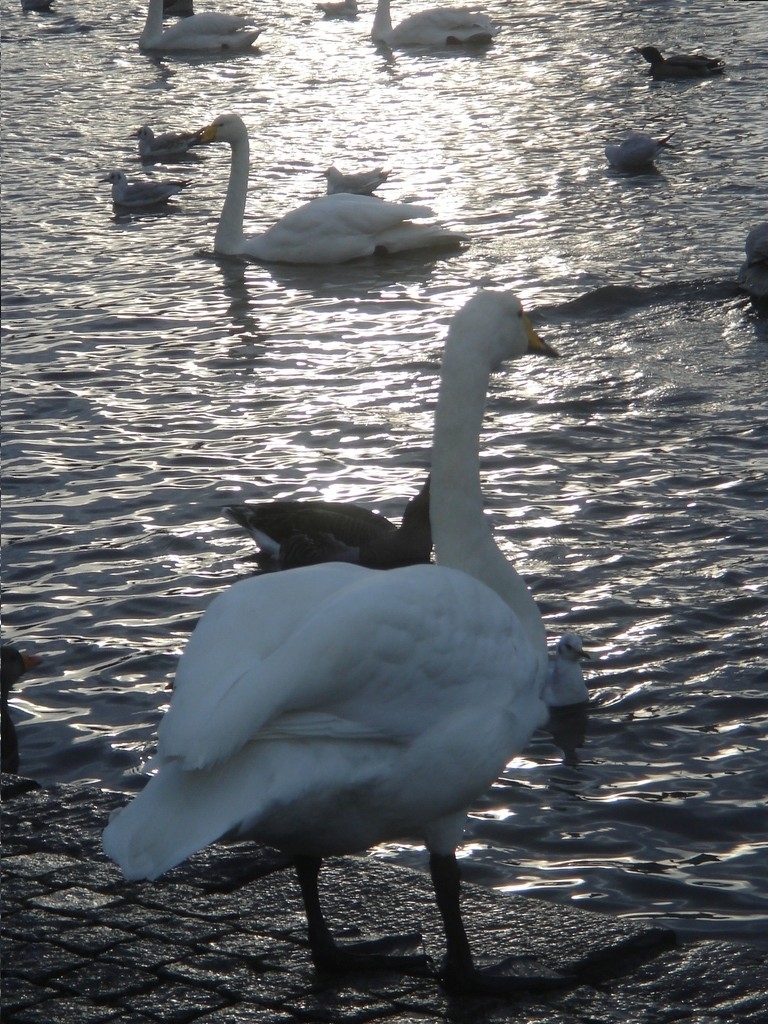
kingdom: Animalia
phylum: Chordata
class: Aves
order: Anseriformes
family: Anatidae
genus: Cygnus
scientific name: Cygnus cygnus
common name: Whooper swan
